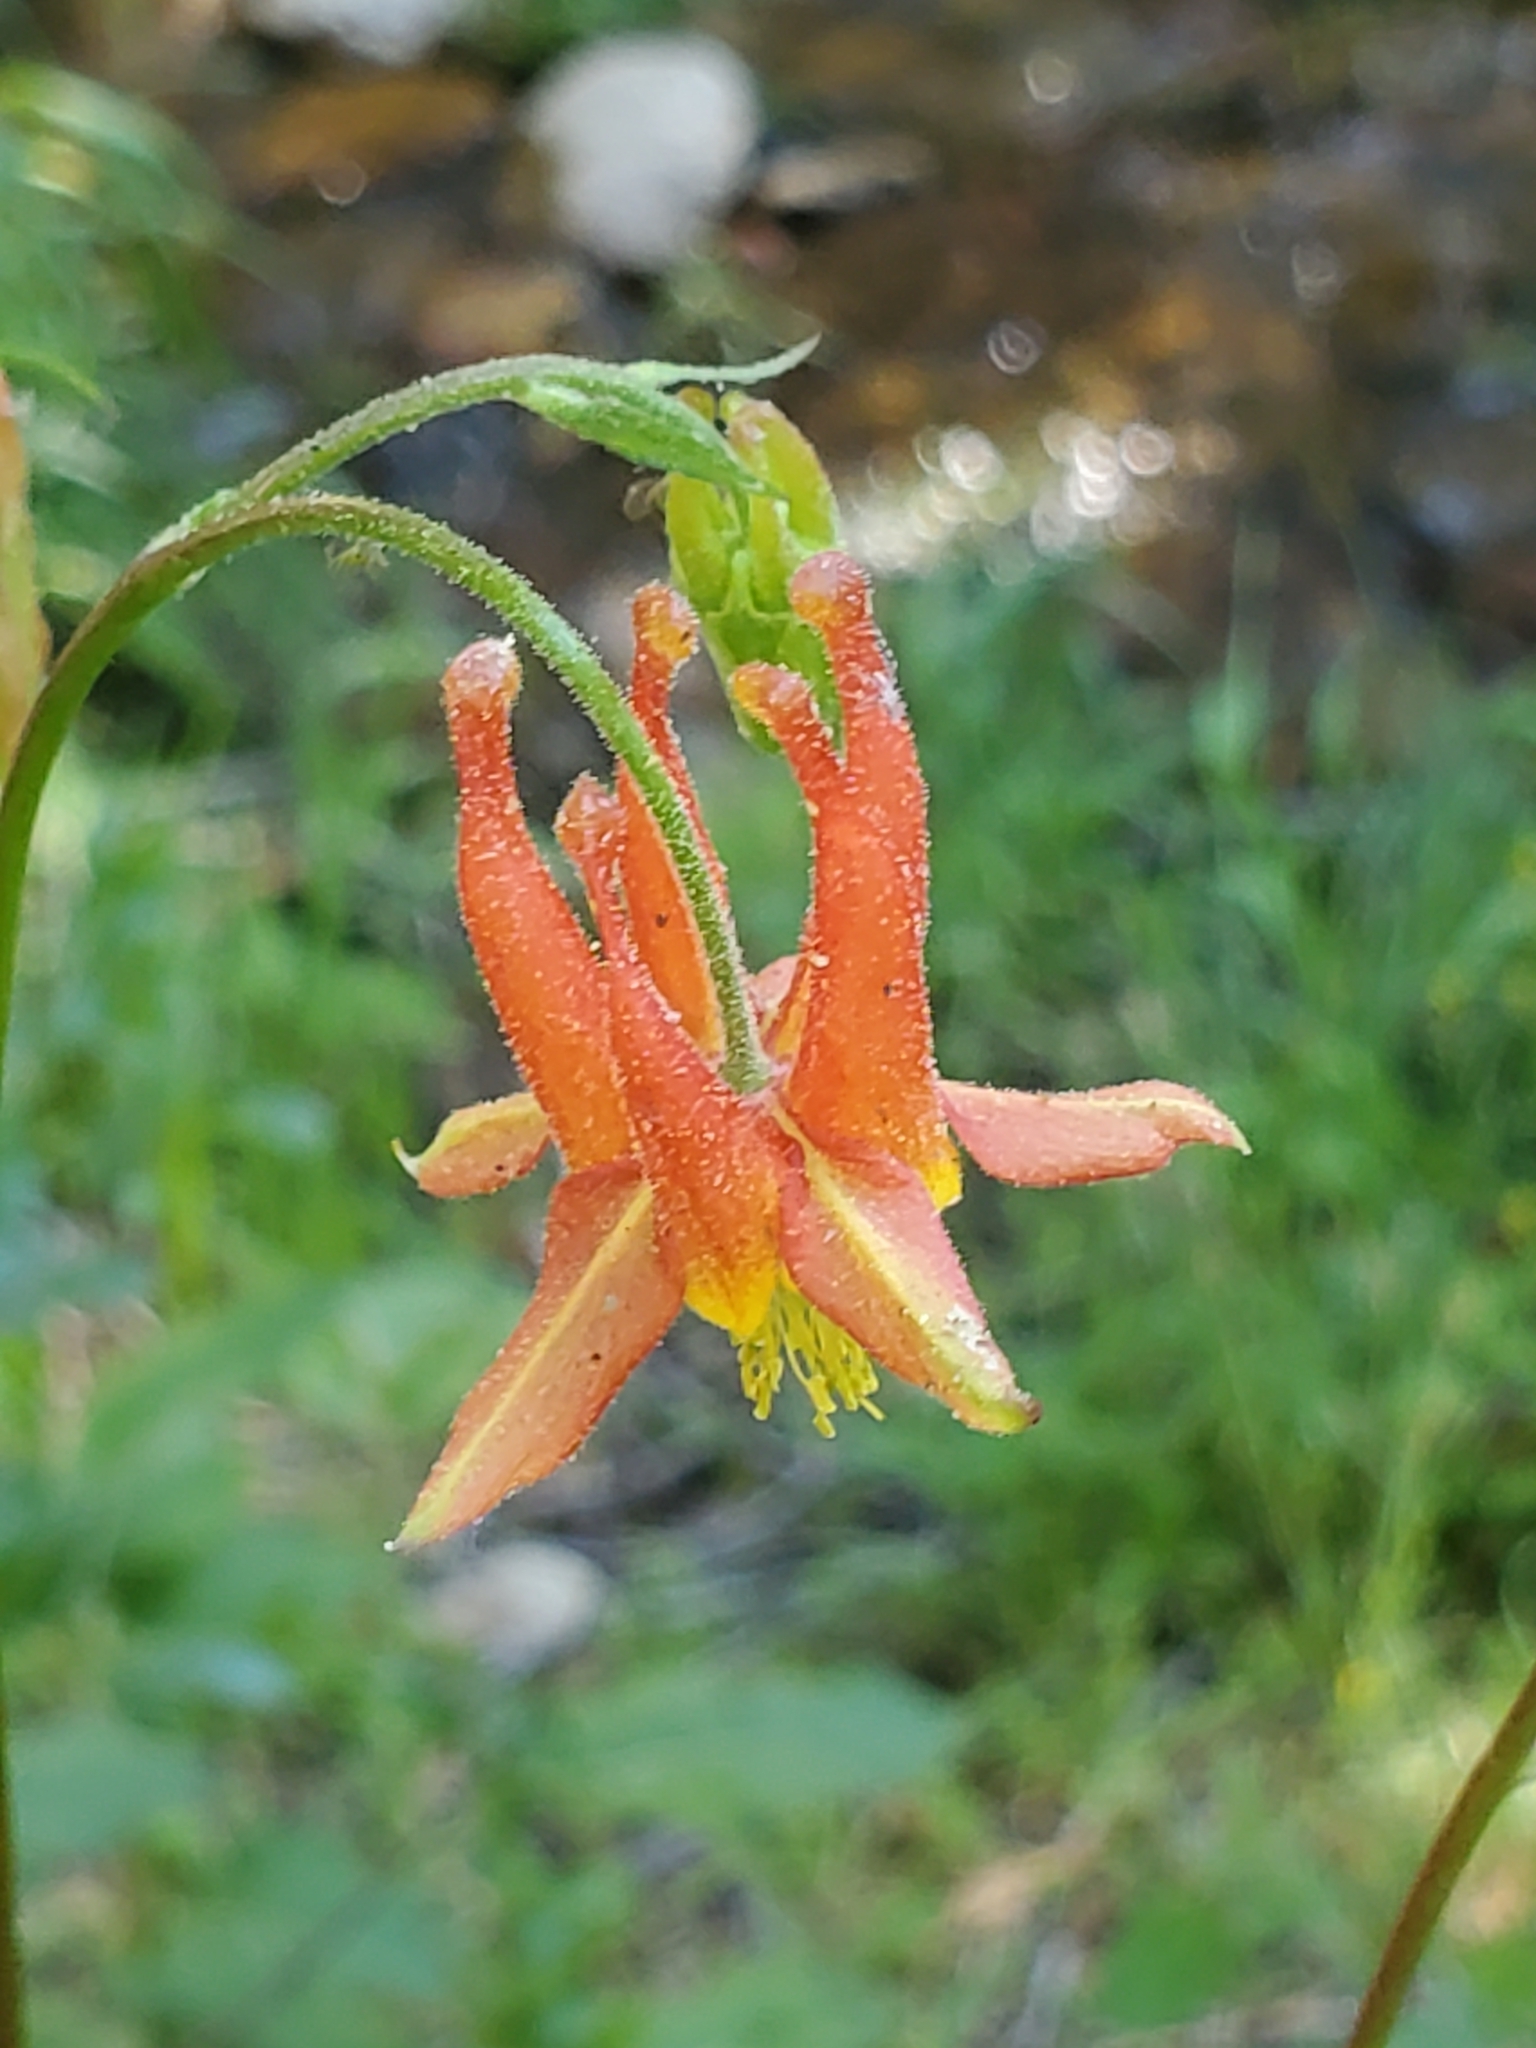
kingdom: Plantae
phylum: Tracheophyta
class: Magnoliopsida
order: Ranunculales
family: Ranunculaceae
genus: Aquilegia
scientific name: Aquilegia formosa
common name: Sitka columbine
